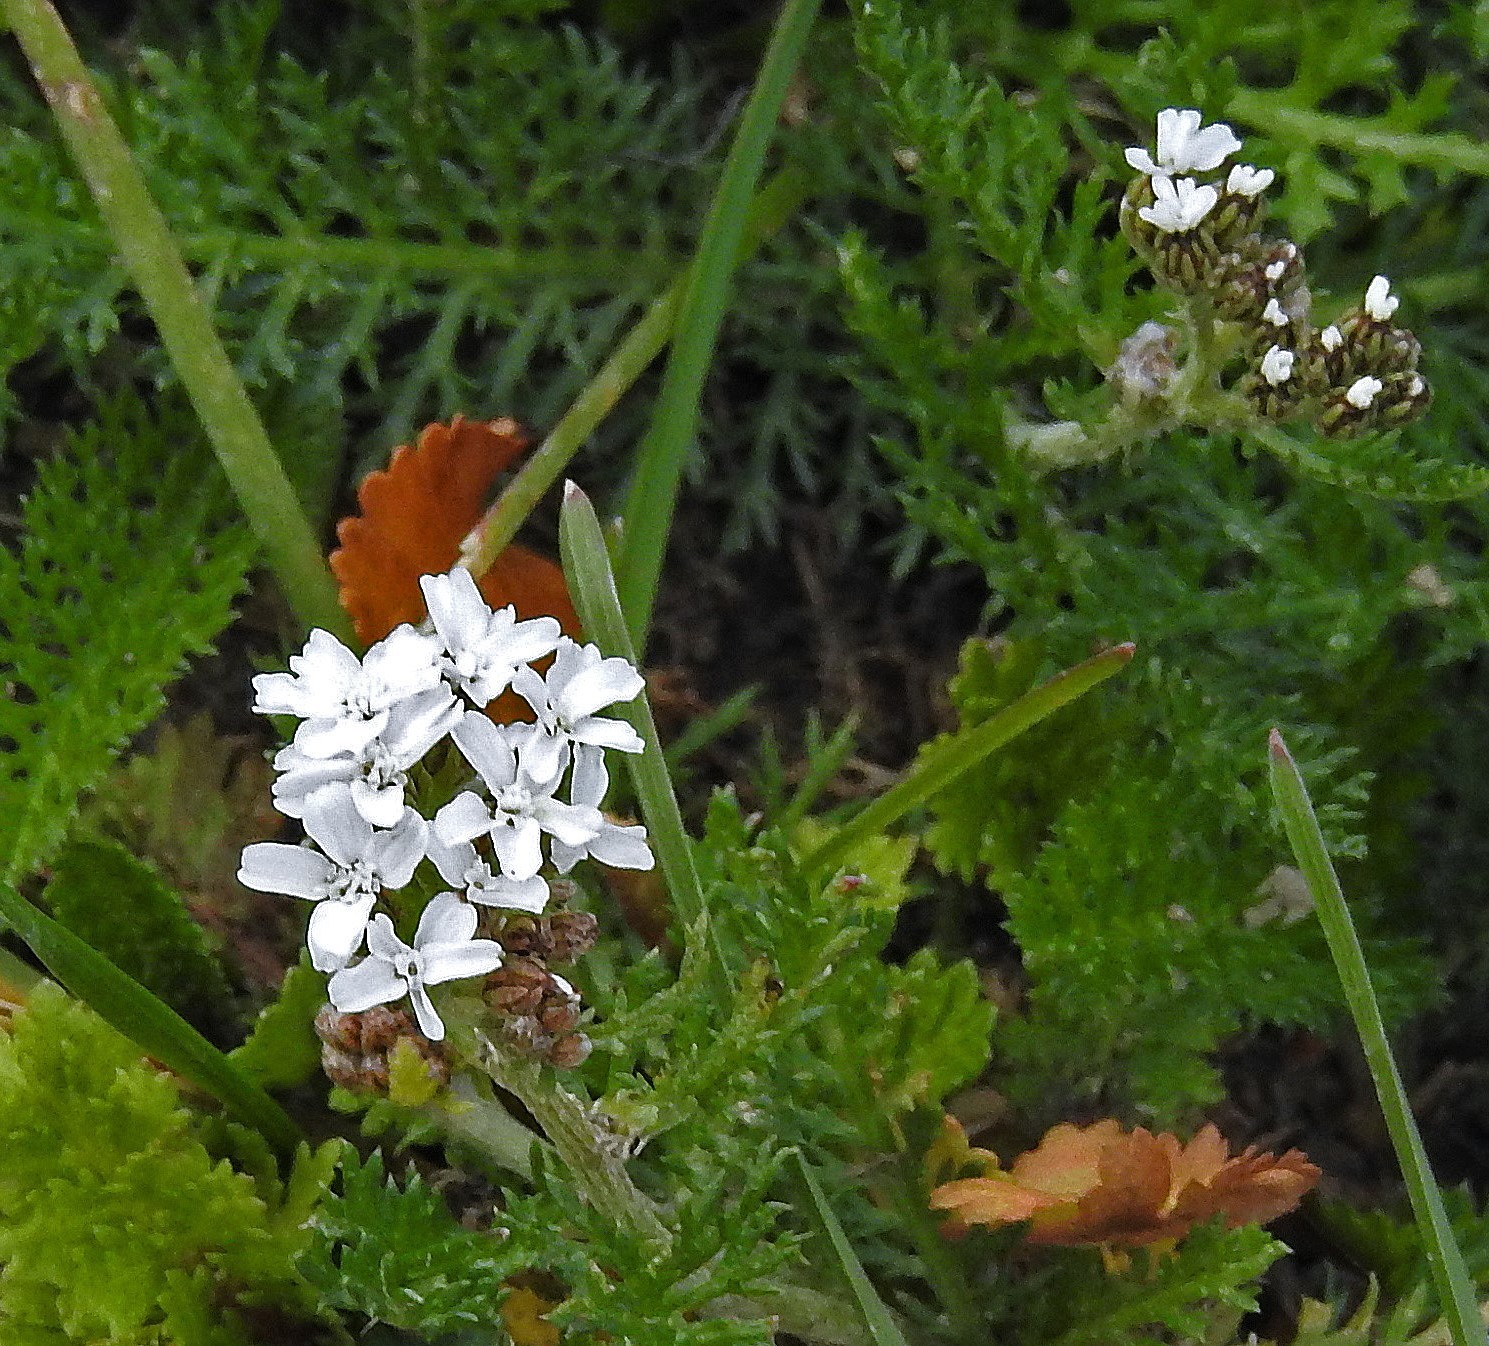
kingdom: Plantae
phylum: Tracheophyta
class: Magnoliopsida
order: Asterales
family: Asteraceae
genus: Achillea
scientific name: Achillea millefolium
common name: Yarrow
